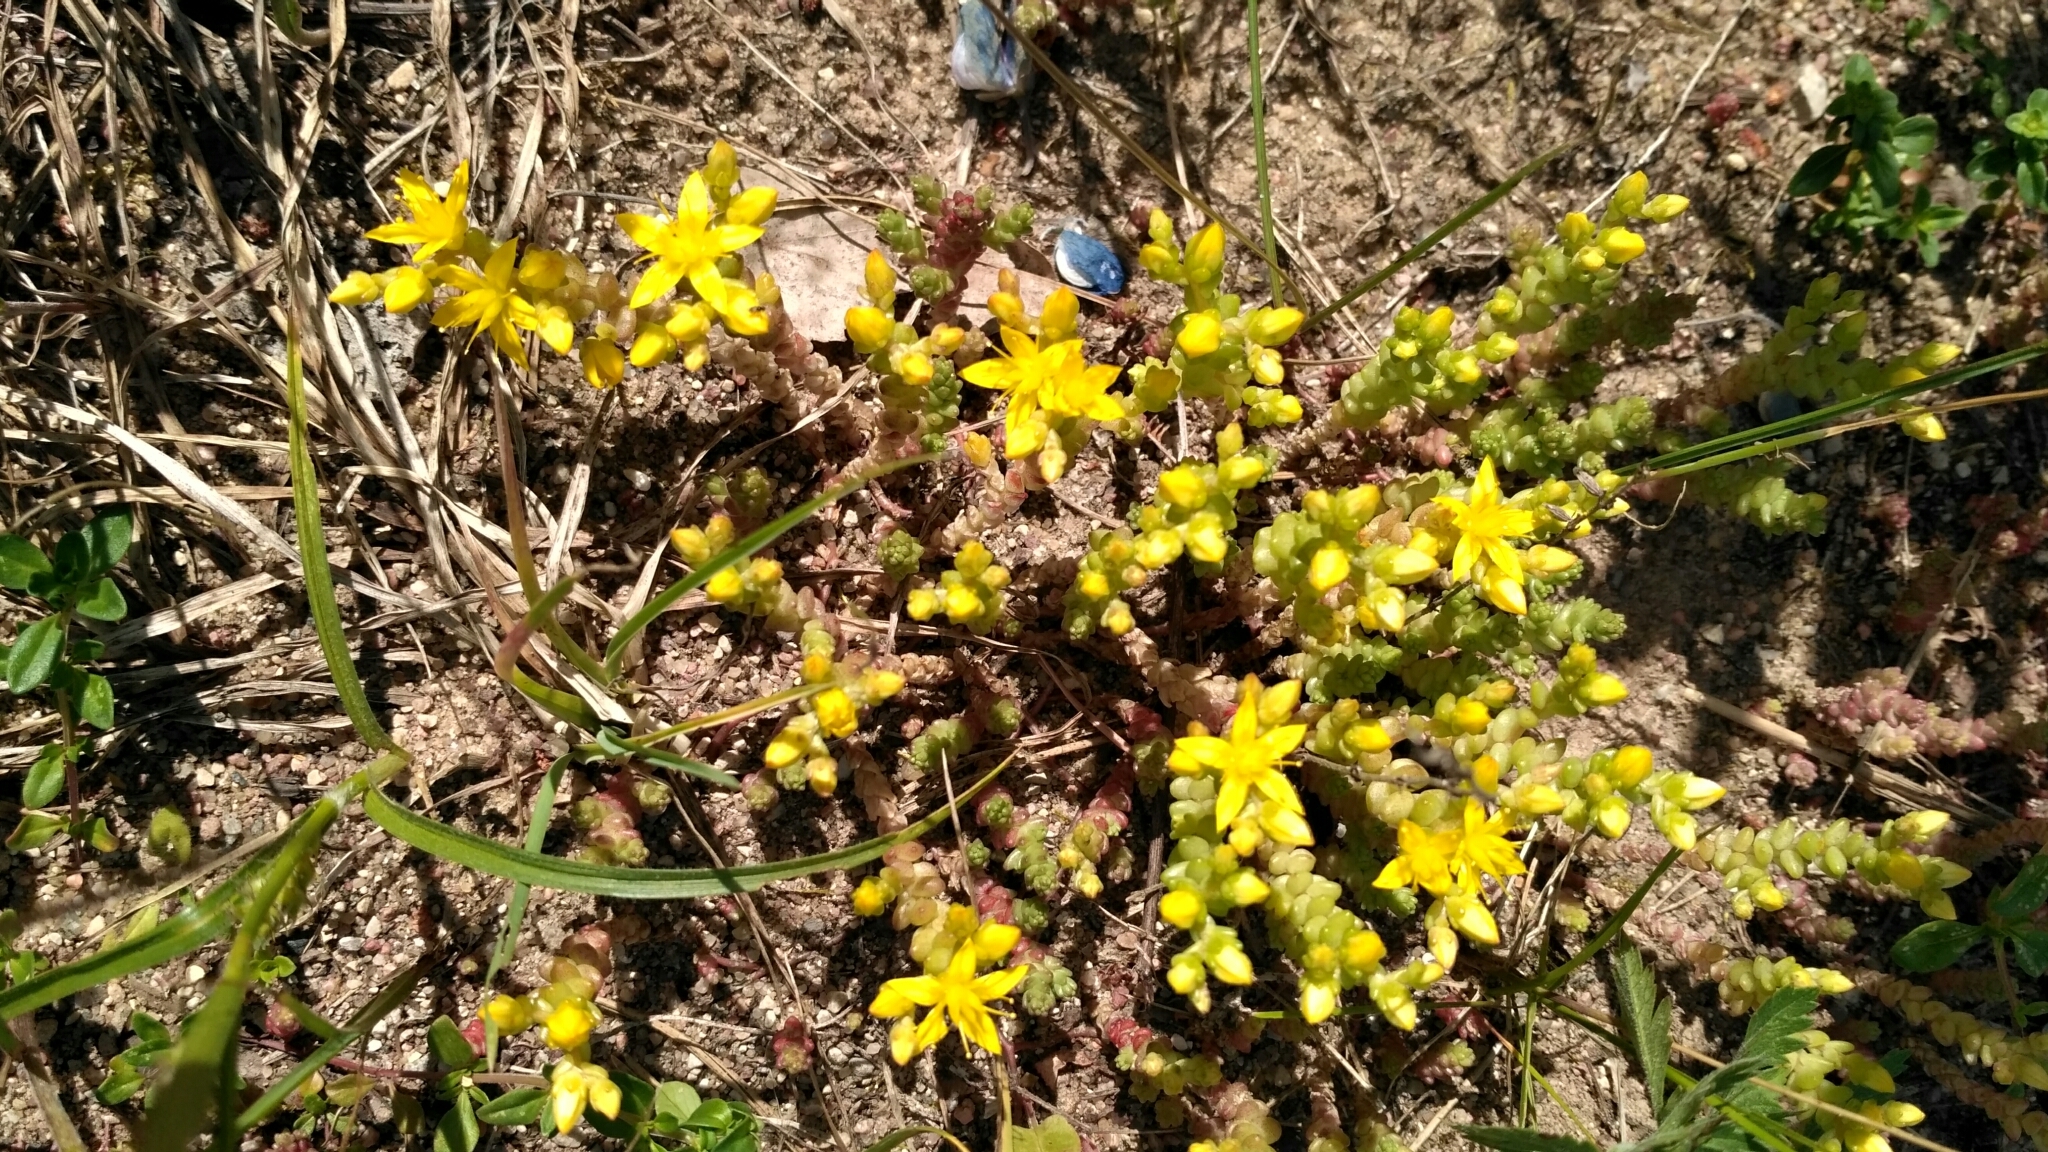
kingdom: Plantae
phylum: Tracheophyta
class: Magnoliopsida
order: Saxifragales
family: Crassulaceae
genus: Sedum
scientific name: Sedum acre
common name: Biting stonecrop
